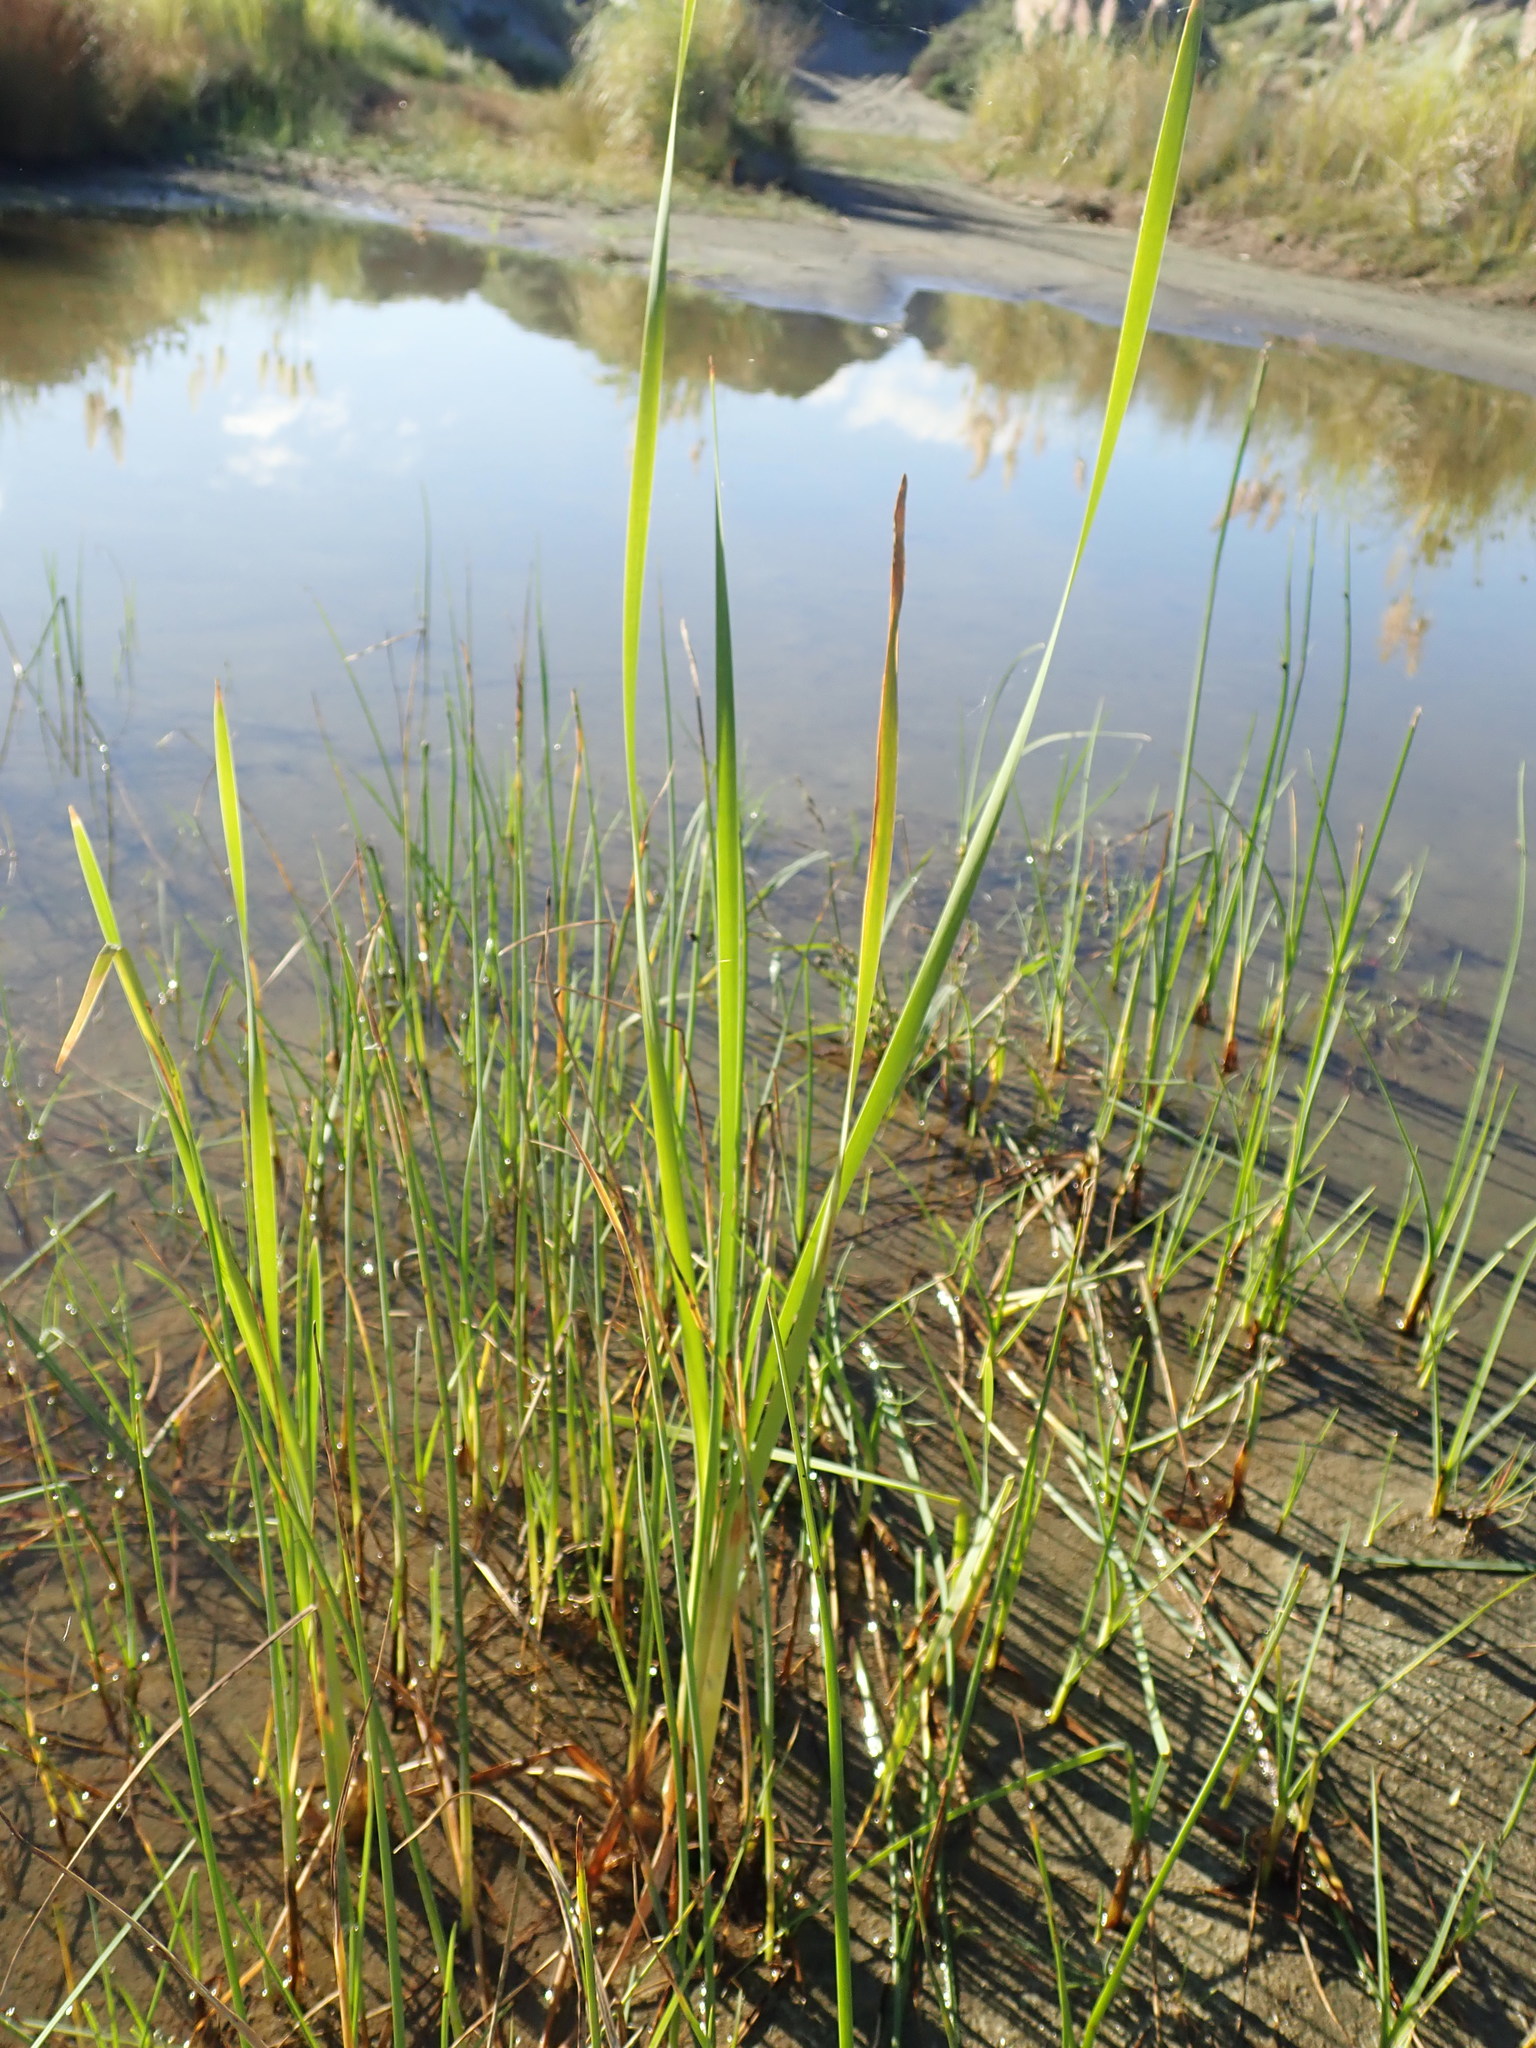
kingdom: Plantae
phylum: Tracheophyta
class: Liliopsida
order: Poales
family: Typhaceae
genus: Typha
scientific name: Typha orientalis
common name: Bullrush
